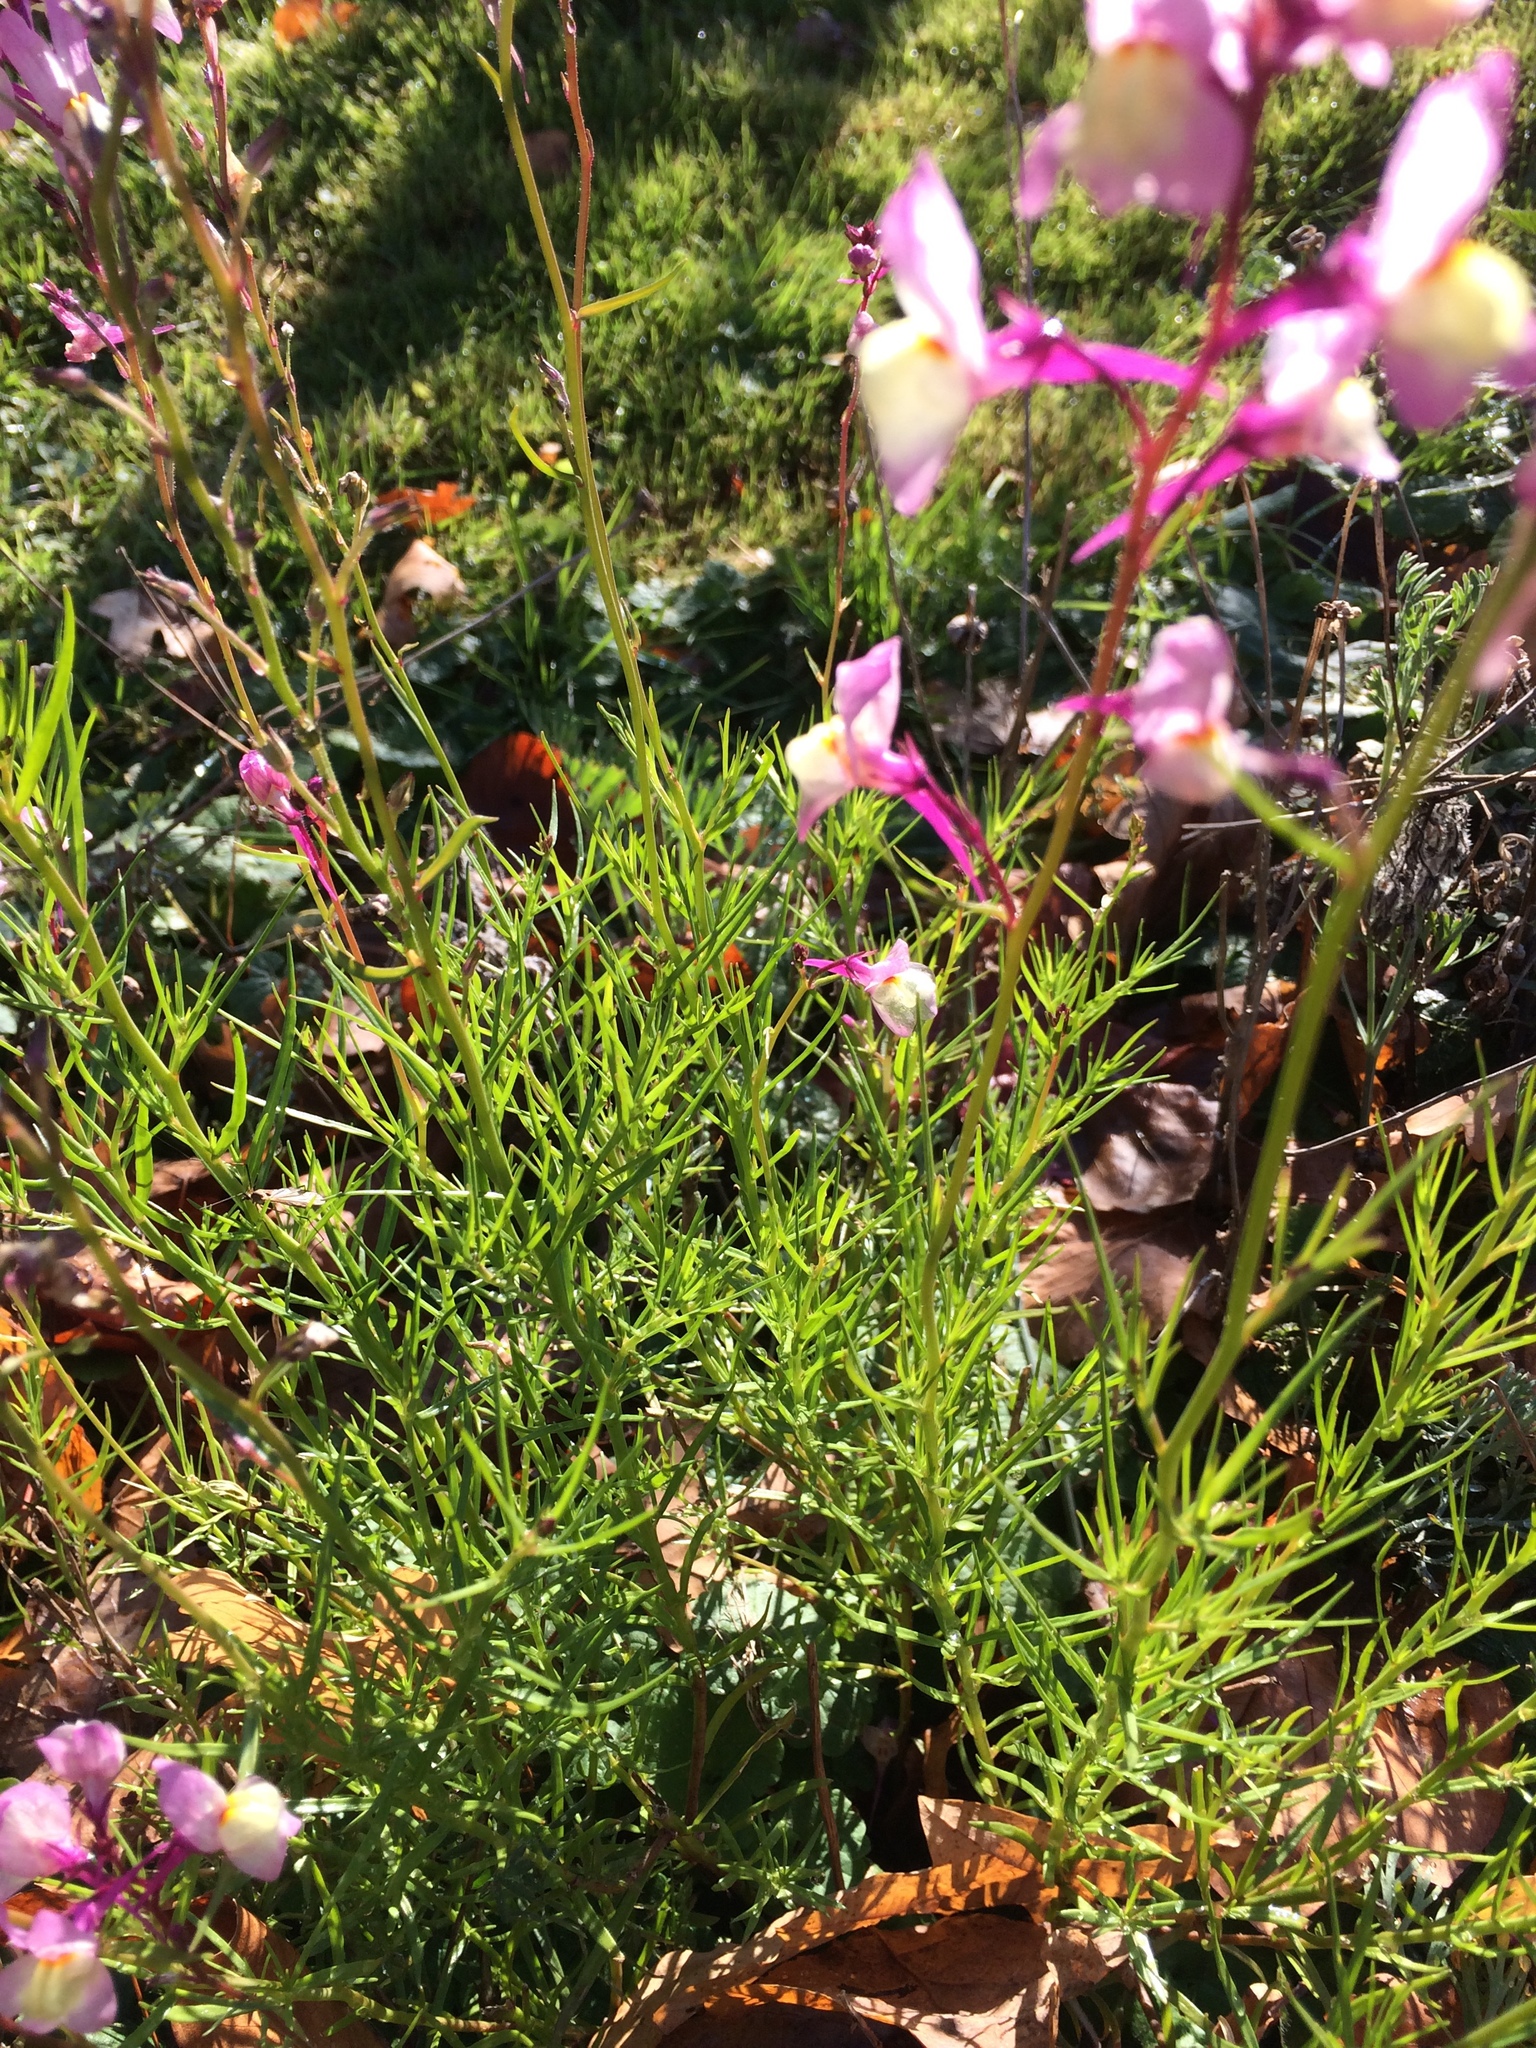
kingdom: Plantae
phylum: Tracheophyta
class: Magnoliopsida
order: Lamiales
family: Plantaginaceae
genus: Linaria
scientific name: Linaria maroccana
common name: Moroccan toadflax
